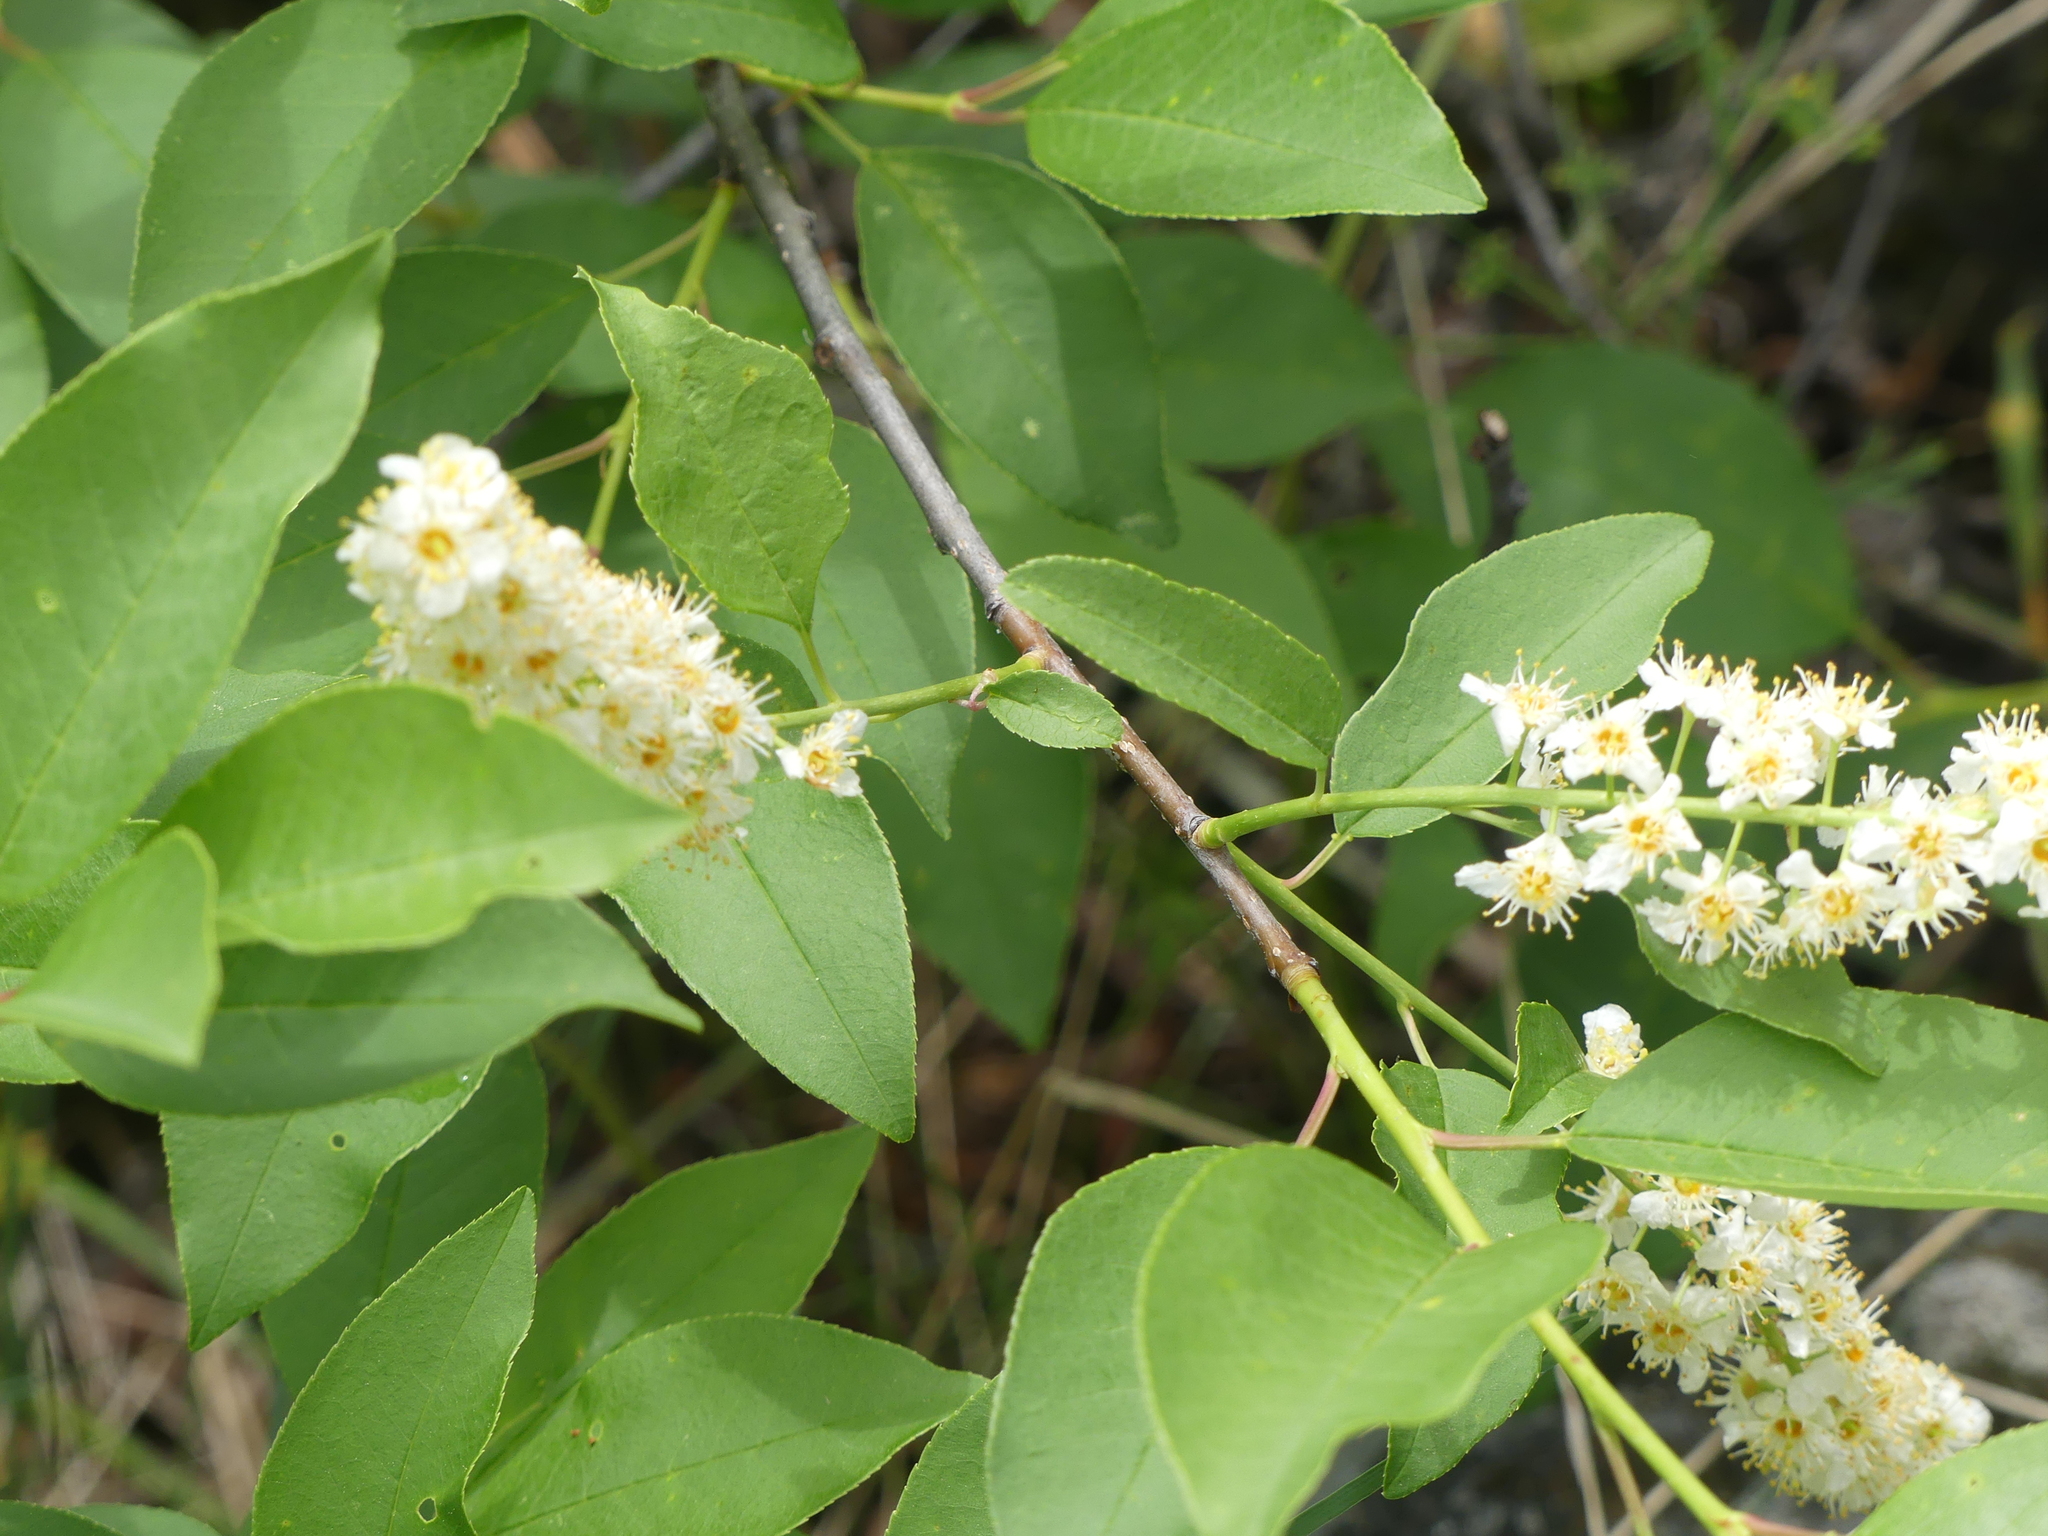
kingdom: Plantae
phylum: Tracheophyta
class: Magnoliopsida
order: Rosales
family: Rosaceae
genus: Prunus
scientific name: Prunus virginiana
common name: Chokecherry
